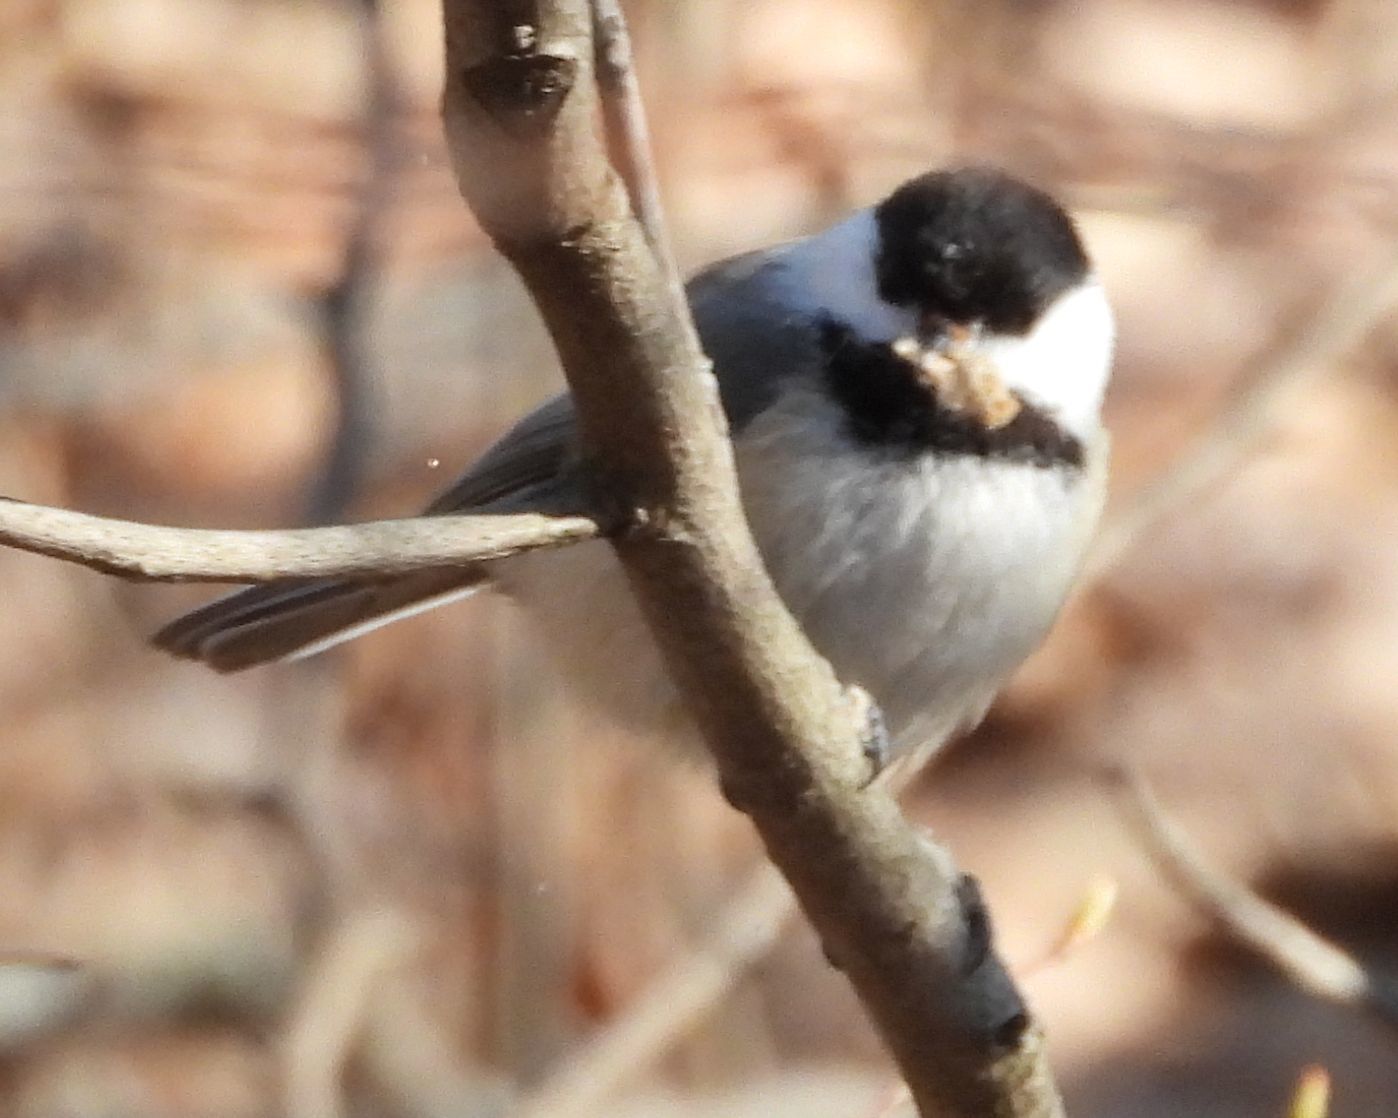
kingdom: Animalia
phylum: Chordata
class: Aves
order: Passeriformes
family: Paridae
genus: Poecile
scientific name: Poecile atricapillus
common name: Black-capped chickadee
